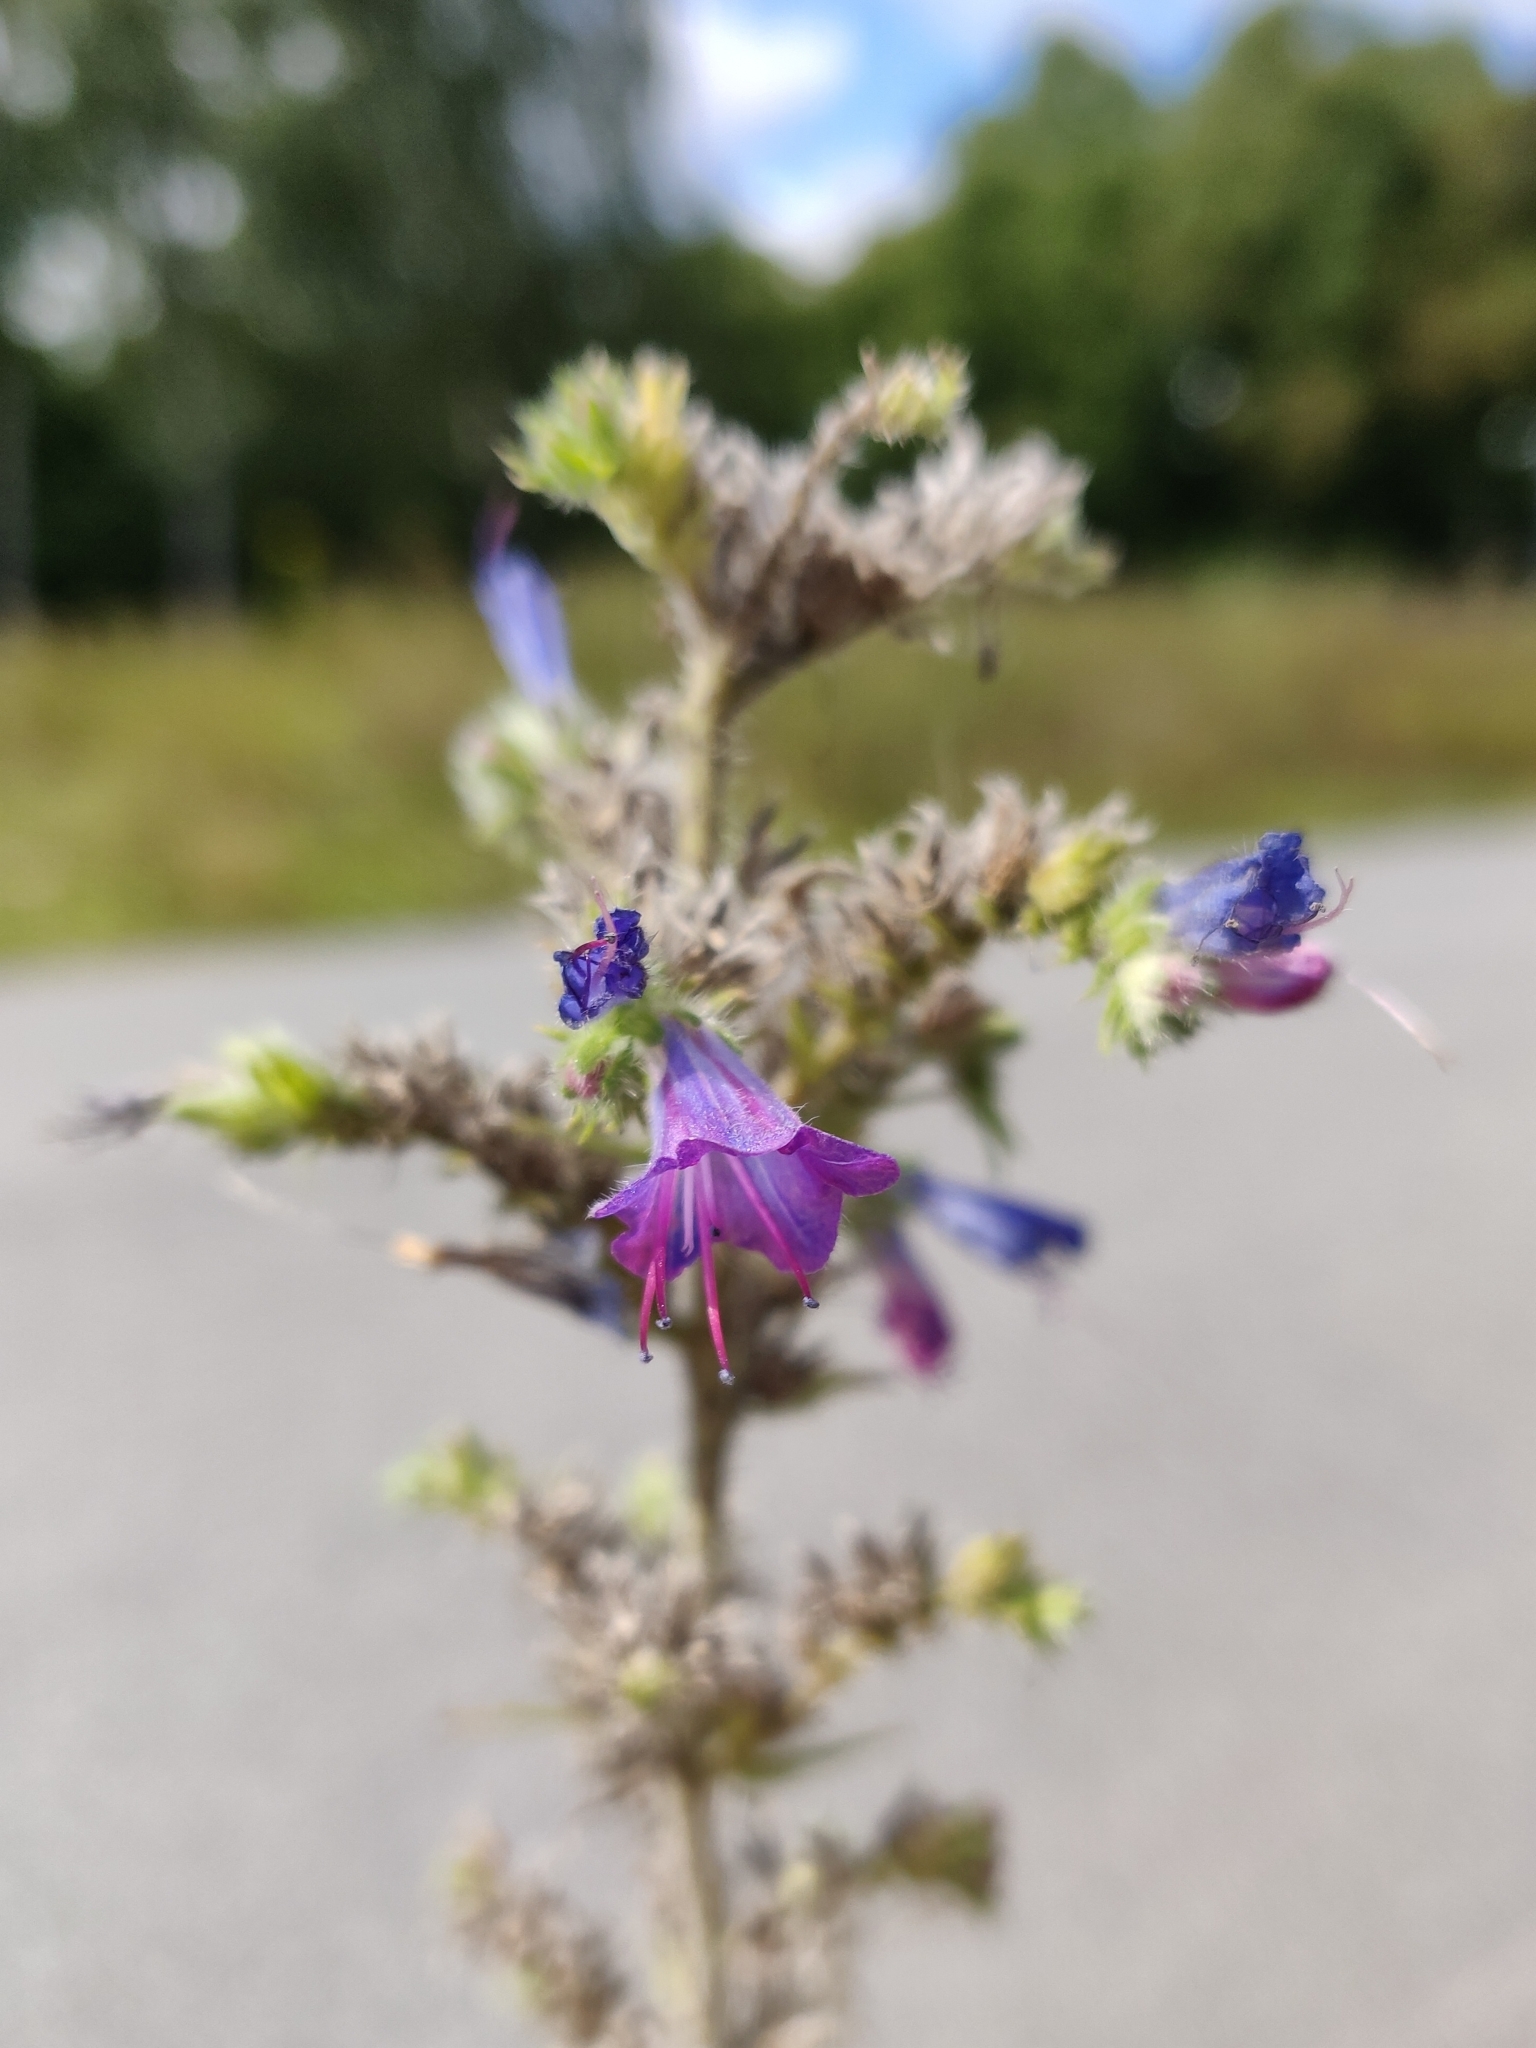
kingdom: Plantae
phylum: Tracheophyta
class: Magnoliopsida
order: Boraginales
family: Boraginaceae
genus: Echium
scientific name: Echium vulgare
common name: Common viper's bugloss
